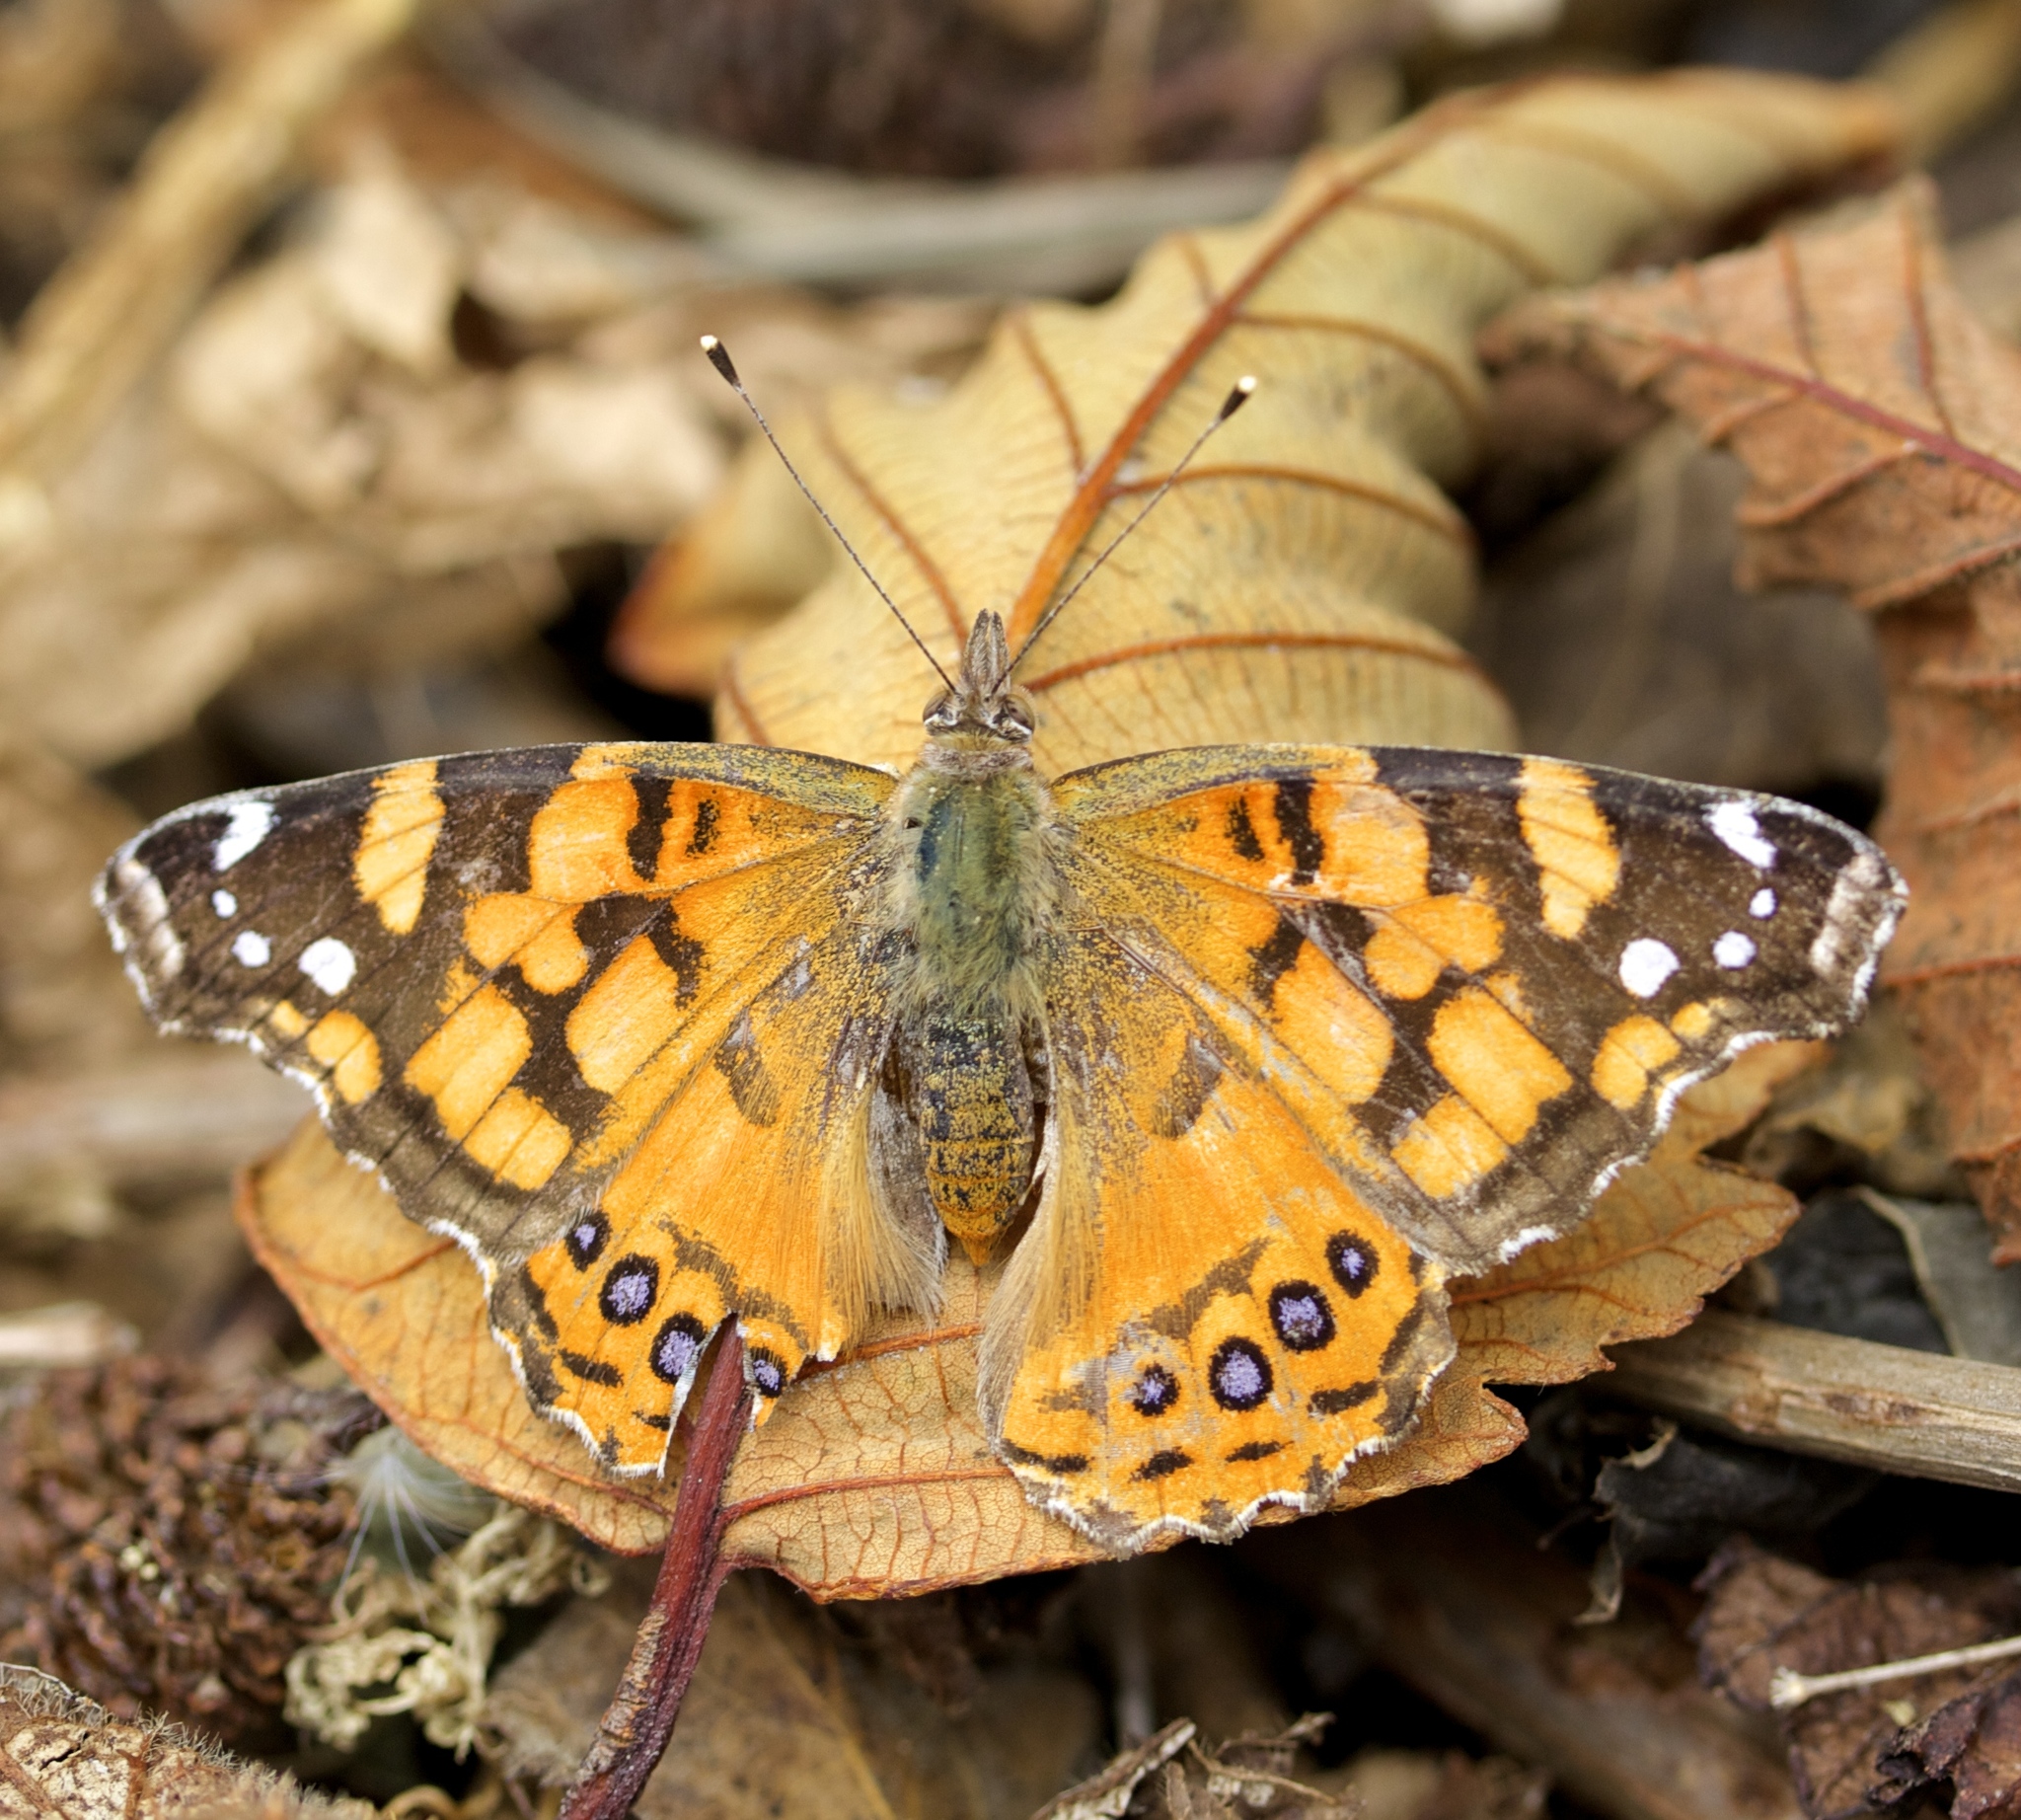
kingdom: Animalia
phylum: Arthropoda
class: Insecta
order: Lepidoptera
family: Nymphalidae
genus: Vanessa
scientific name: Vanessa annabella
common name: West coast lady
